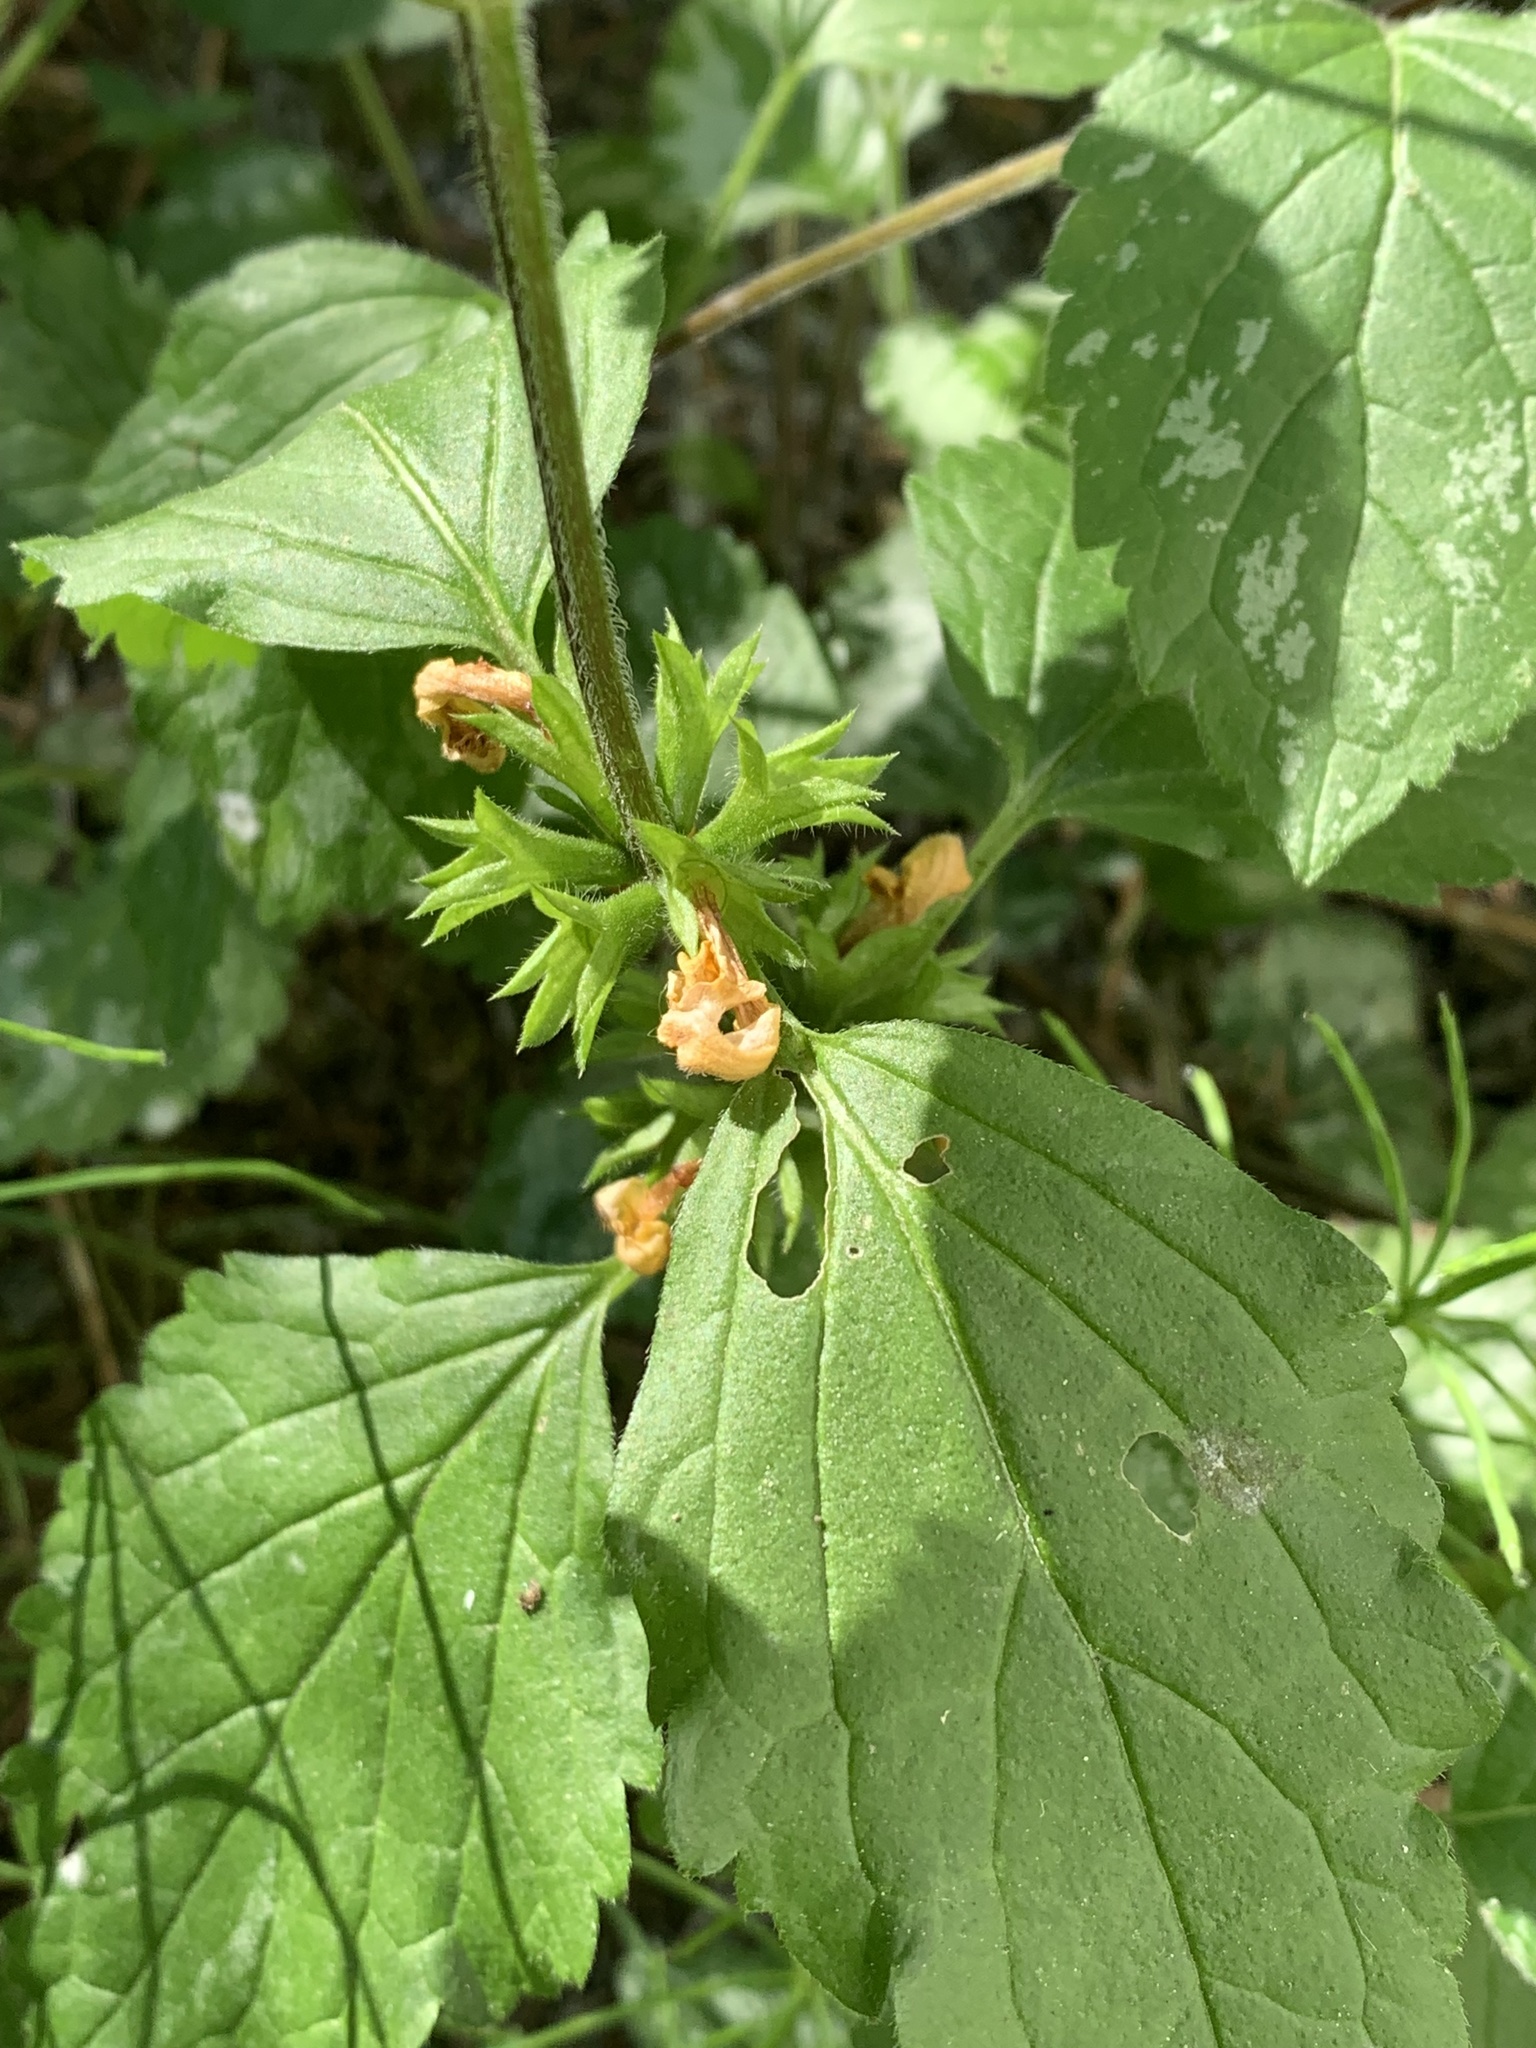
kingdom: Plantae
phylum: Tracheophyta
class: Magnoliopsida
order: Lamiales
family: Lamiaceae
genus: Lamium
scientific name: Lamium galeobdolon
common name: Yellow archangel
